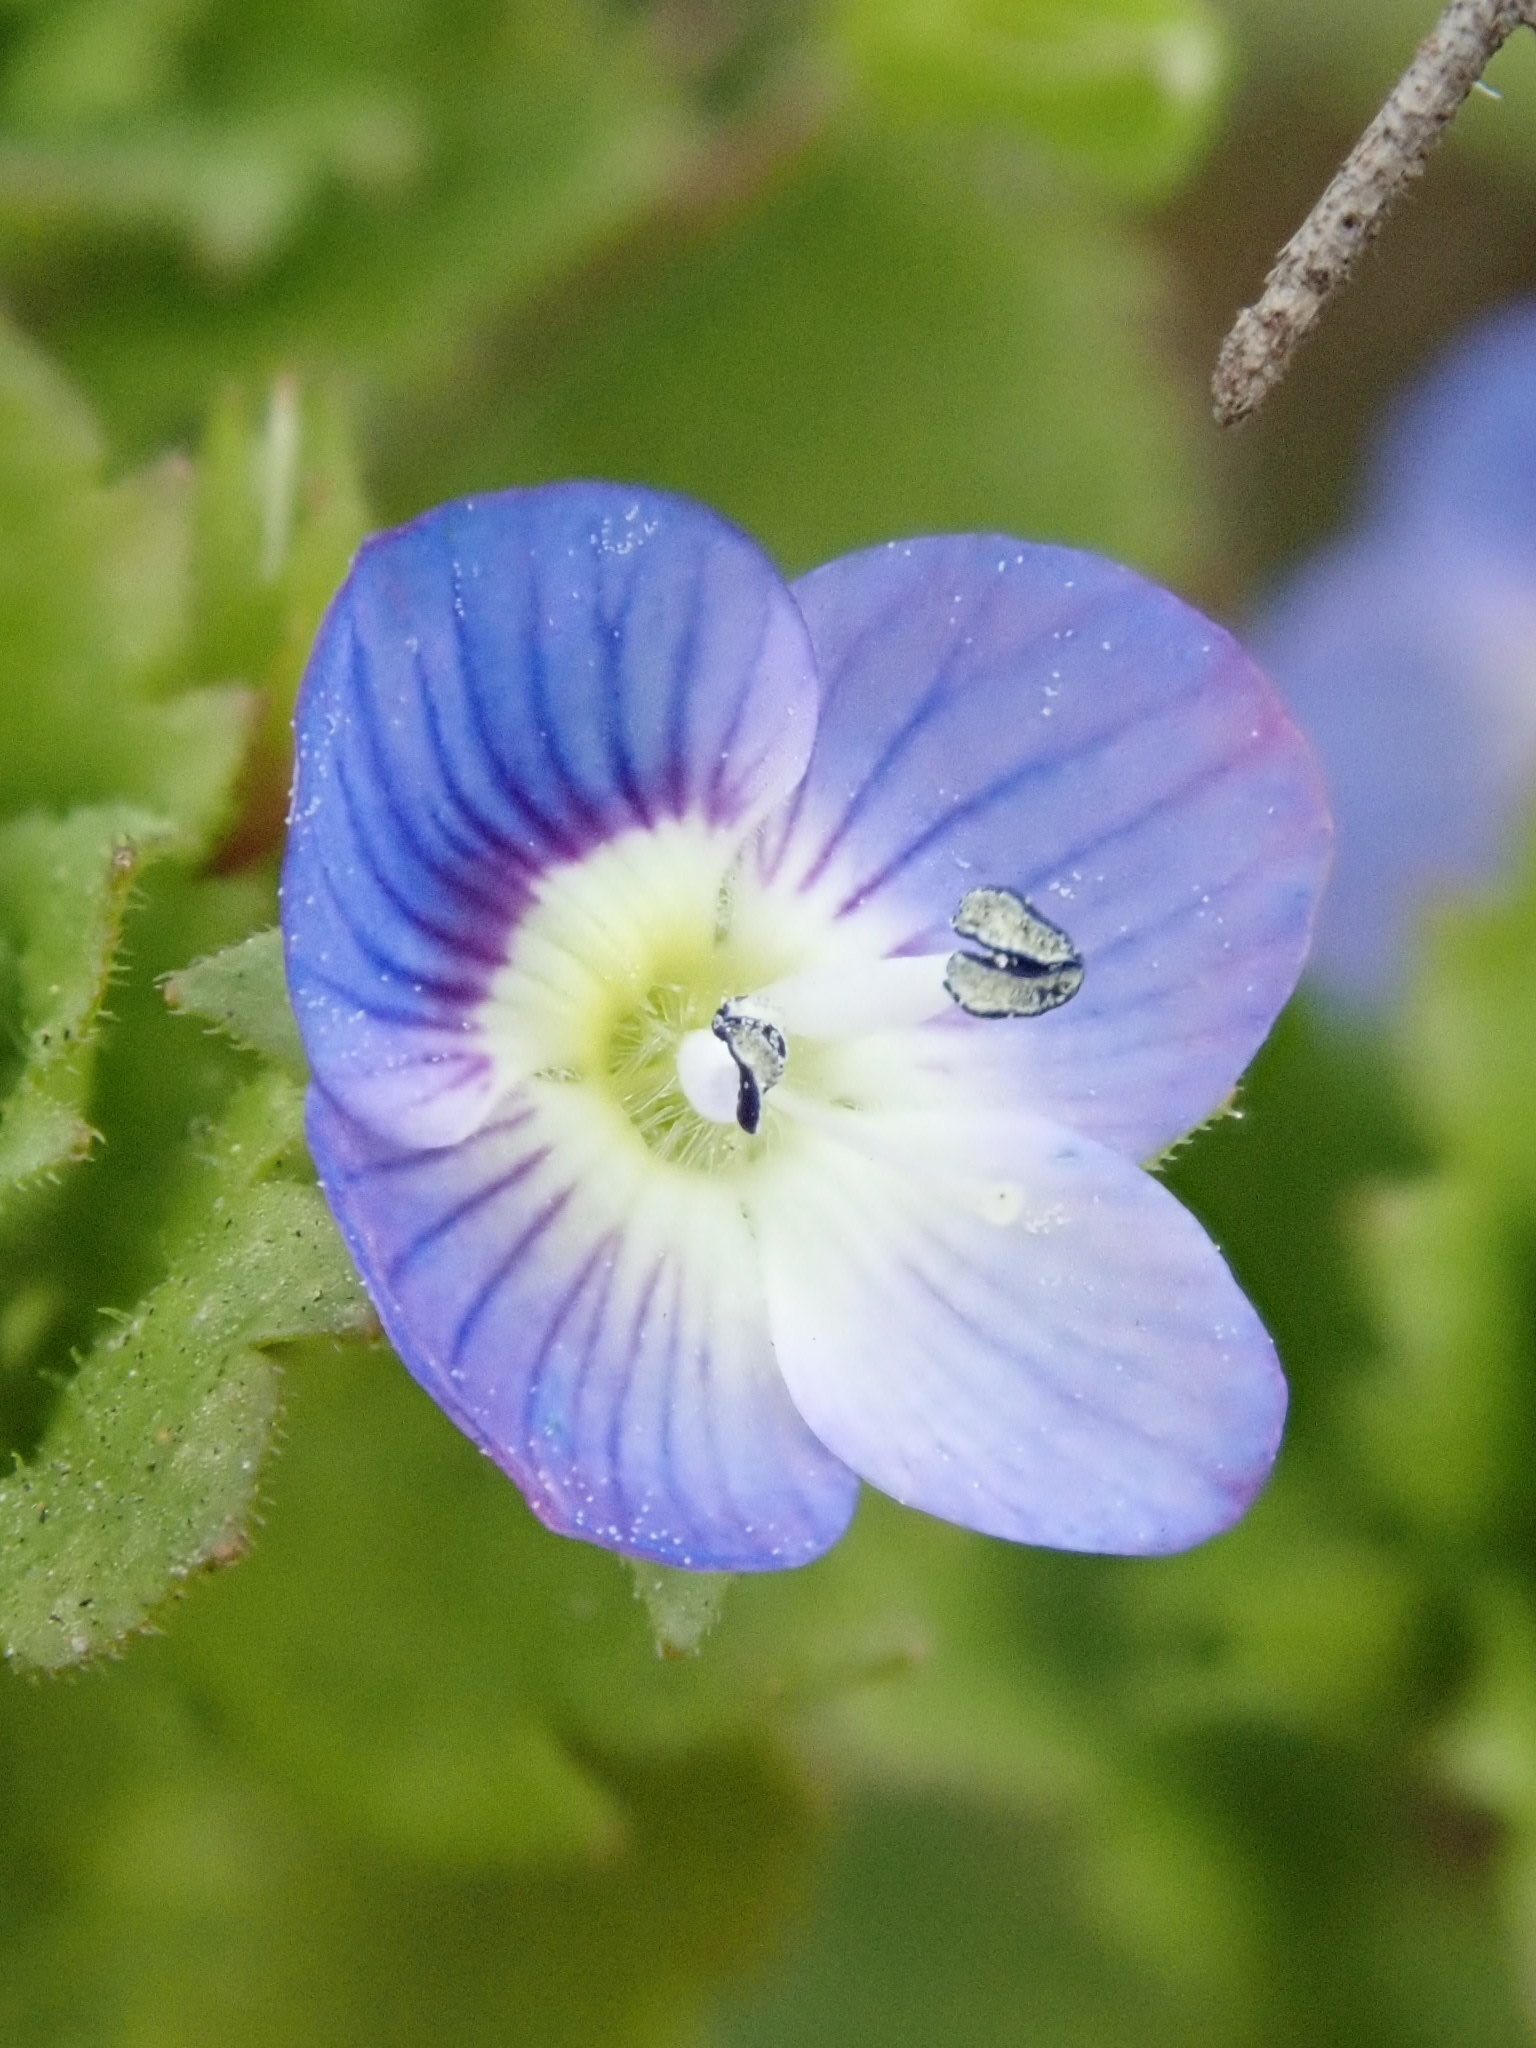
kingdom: Plantae
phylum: Tracheophyta
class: Magnoliopsida
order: Lamiales
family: Plantaginaceae
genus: Veronica
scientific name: Veronica persica
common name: Common field-speedwell
